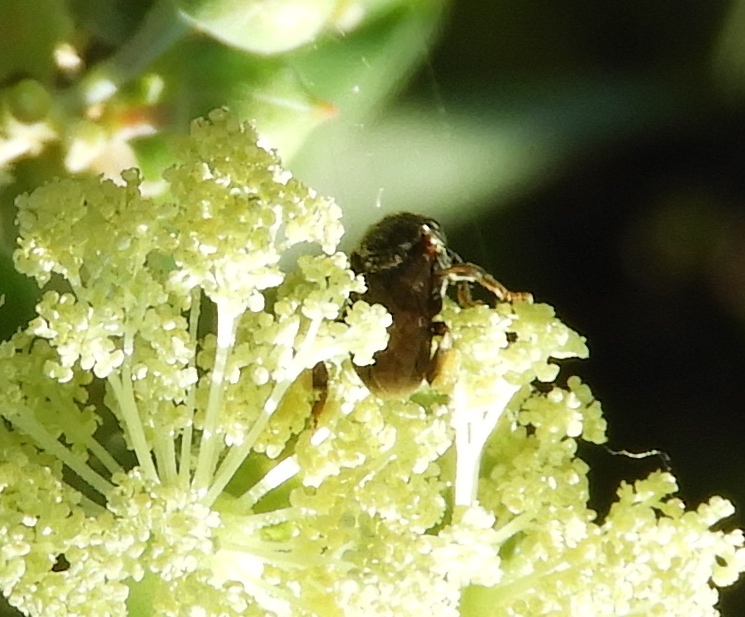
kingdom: Animalia
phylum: Arthropoda
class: Insecta
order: Hymenoptera
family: Apidae
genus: Apidae
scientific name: Apidae
